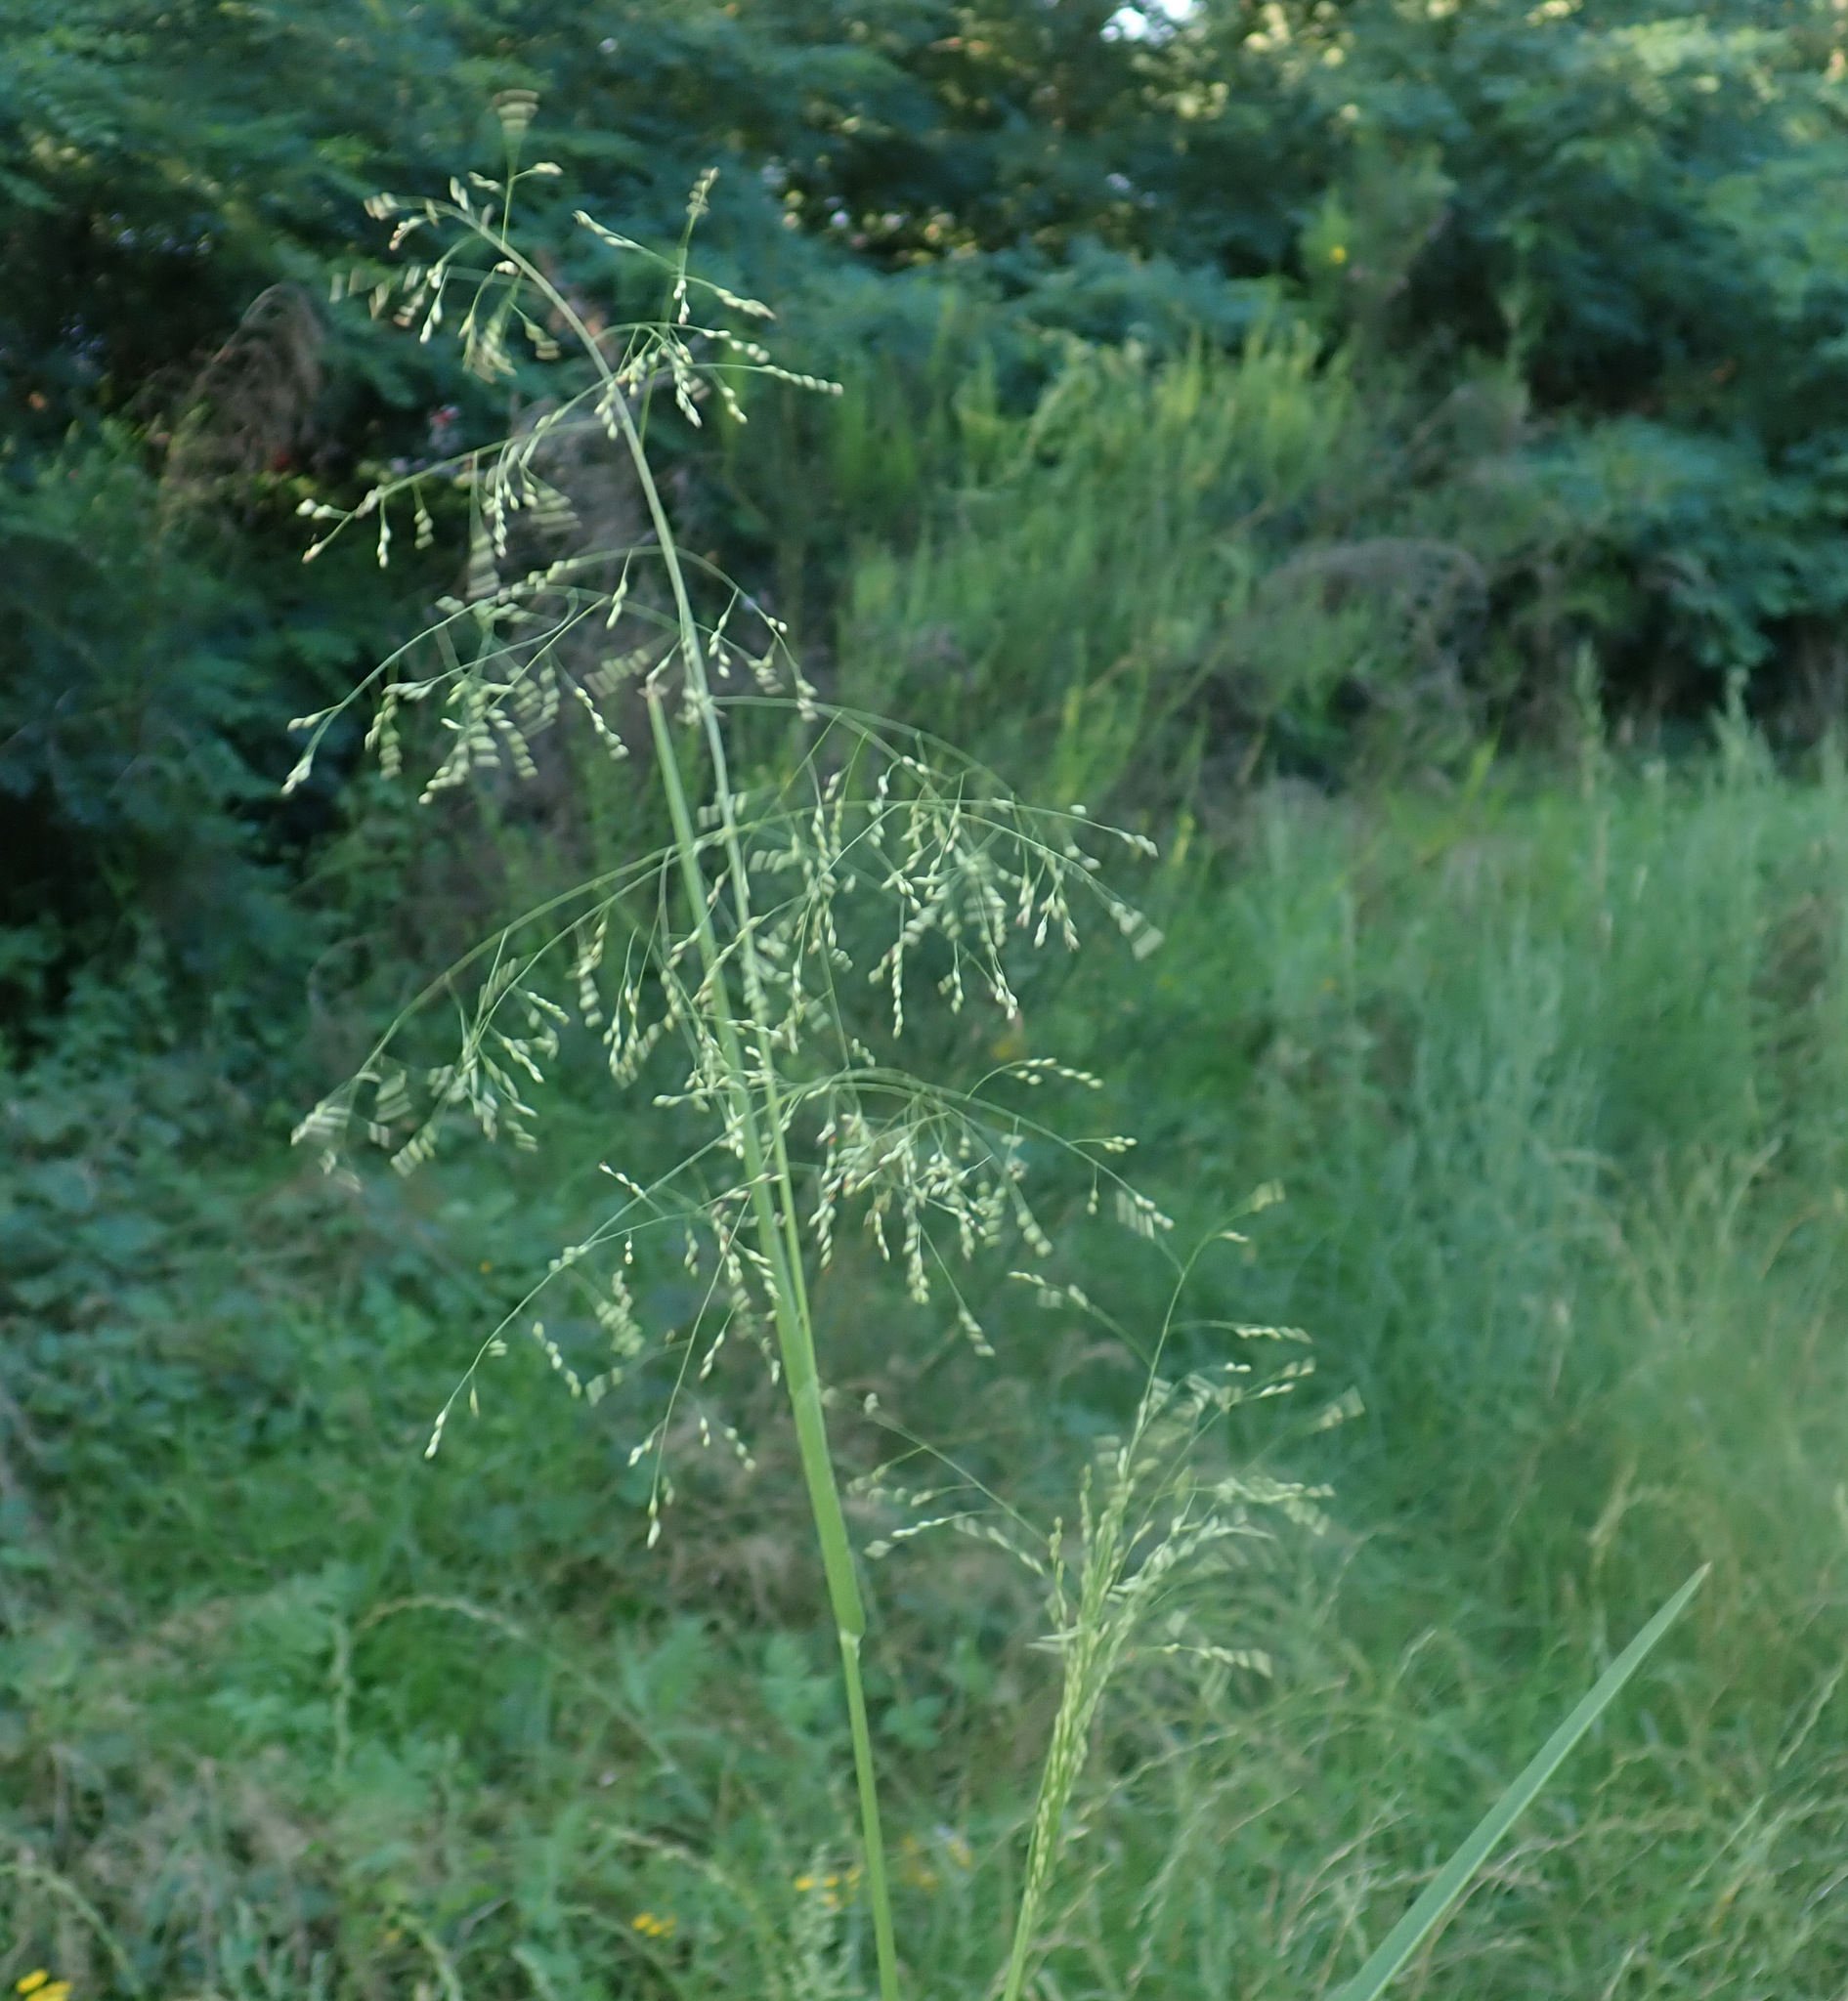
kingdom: Plantae
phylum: Tracheophyta
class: Liliopsida
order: Poales
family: Poaceae
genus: Panicum
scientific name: Panicum schinzii
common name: Sweet grass
